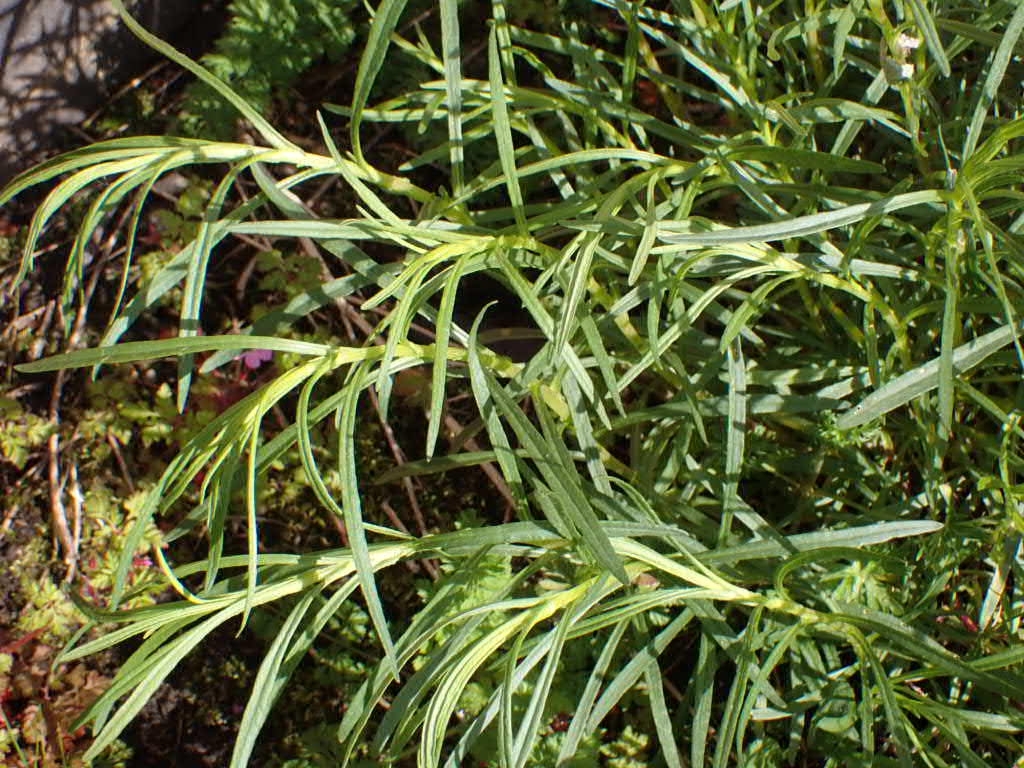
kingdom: Plantae
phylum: Tracheophyta
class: Magnoliopsida
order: Asterales
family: Asteraceae
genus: Senecio
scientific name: Senecio inaequidens
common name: Narrow-leaved ragwort
